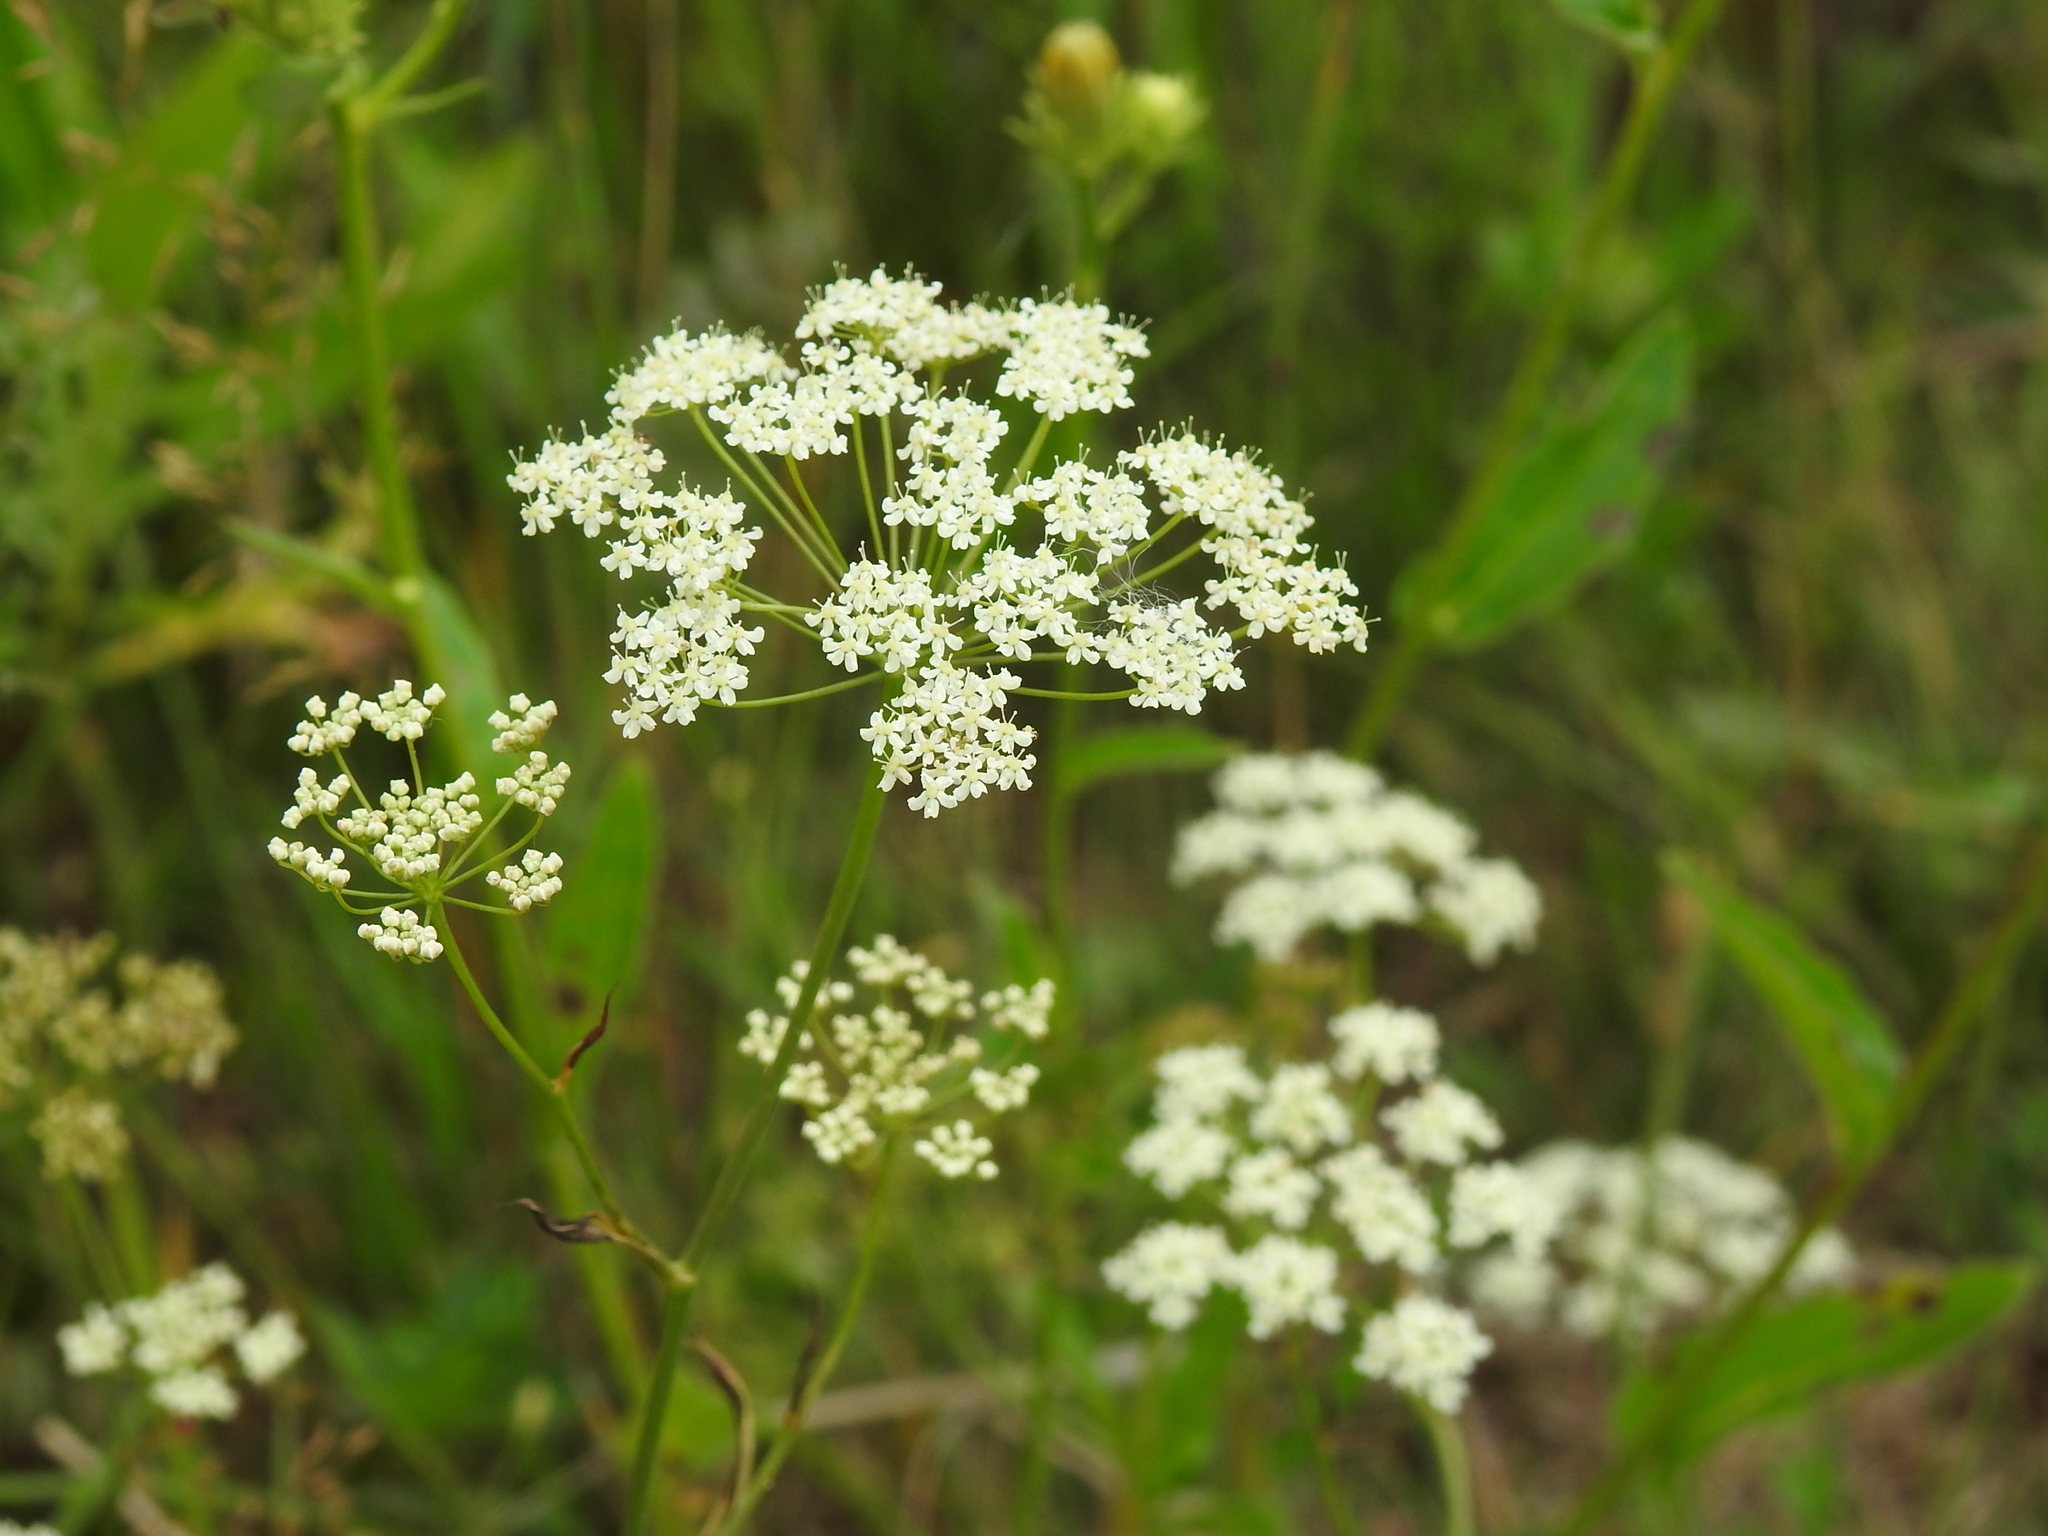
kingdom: Plantae
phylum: Tracheophyta
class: Magnoliopsida
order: Apiales
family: Apiaceae
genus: Pimpinella
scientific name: Pimpinella saxifraga
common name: Burnet-saxifrage
